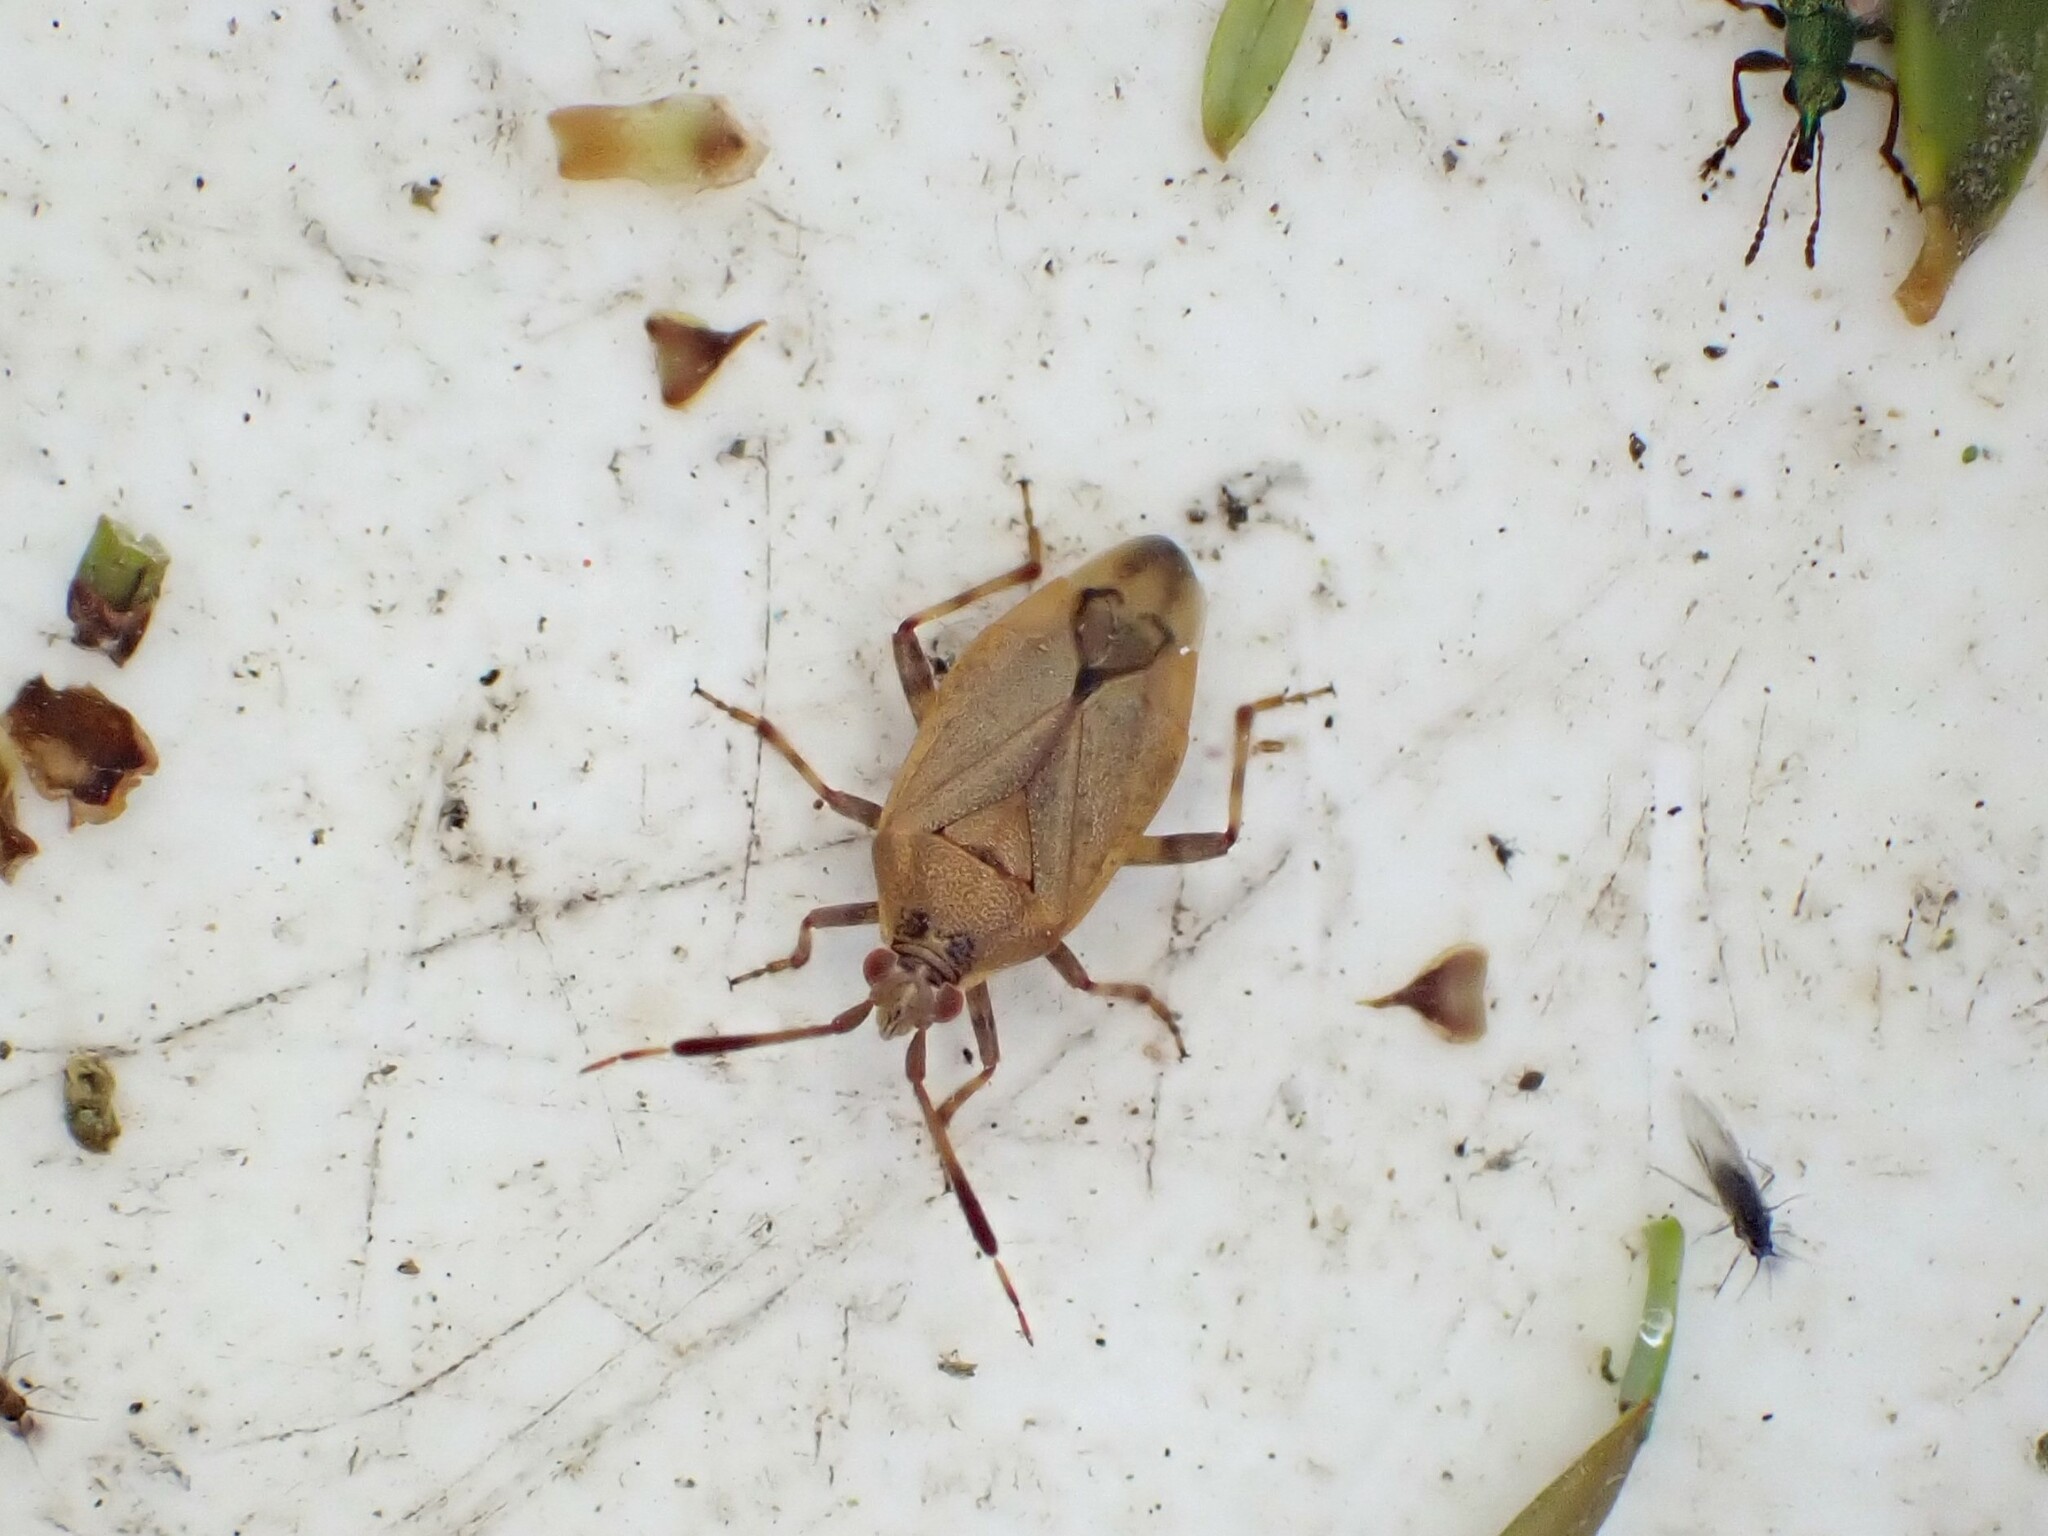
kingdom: Animalia
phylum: Arthropoda
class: Insecta
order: Hemiptera
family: Miridae
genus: Romna
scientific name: Romna capsoides
